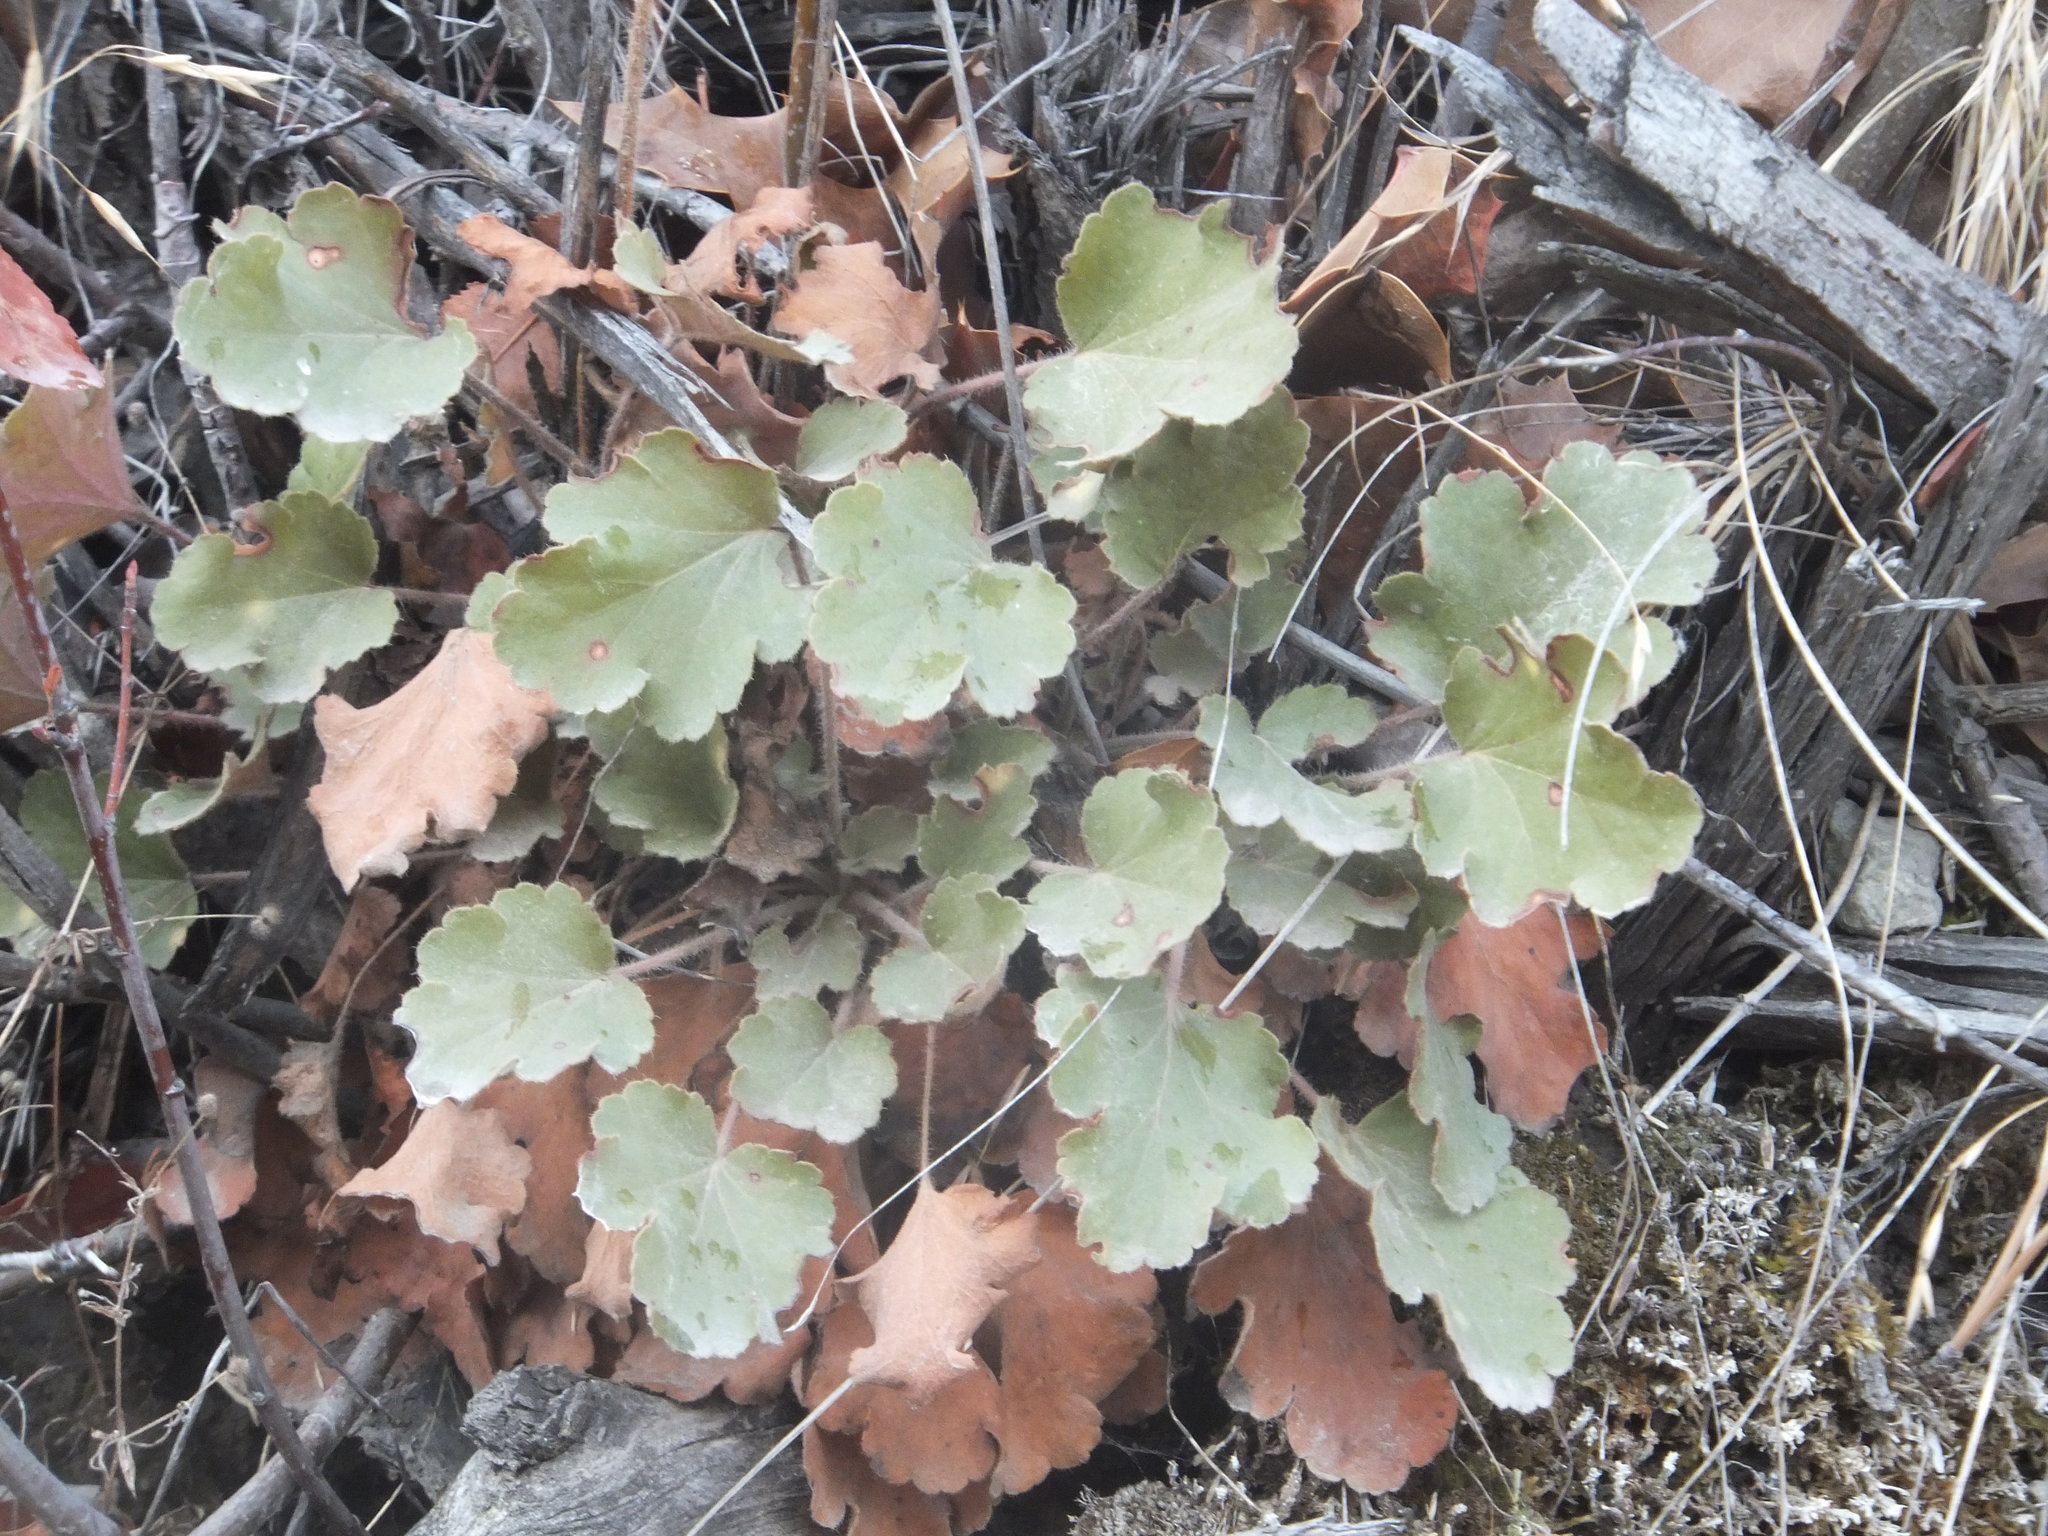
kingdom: Plantae
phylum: Tracheophyta
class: Magnoliopsida
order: Saxifragales
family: Saxifragaceae
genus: Heuchera
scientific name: Heuchera cylindrica
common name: Mat alumroot
